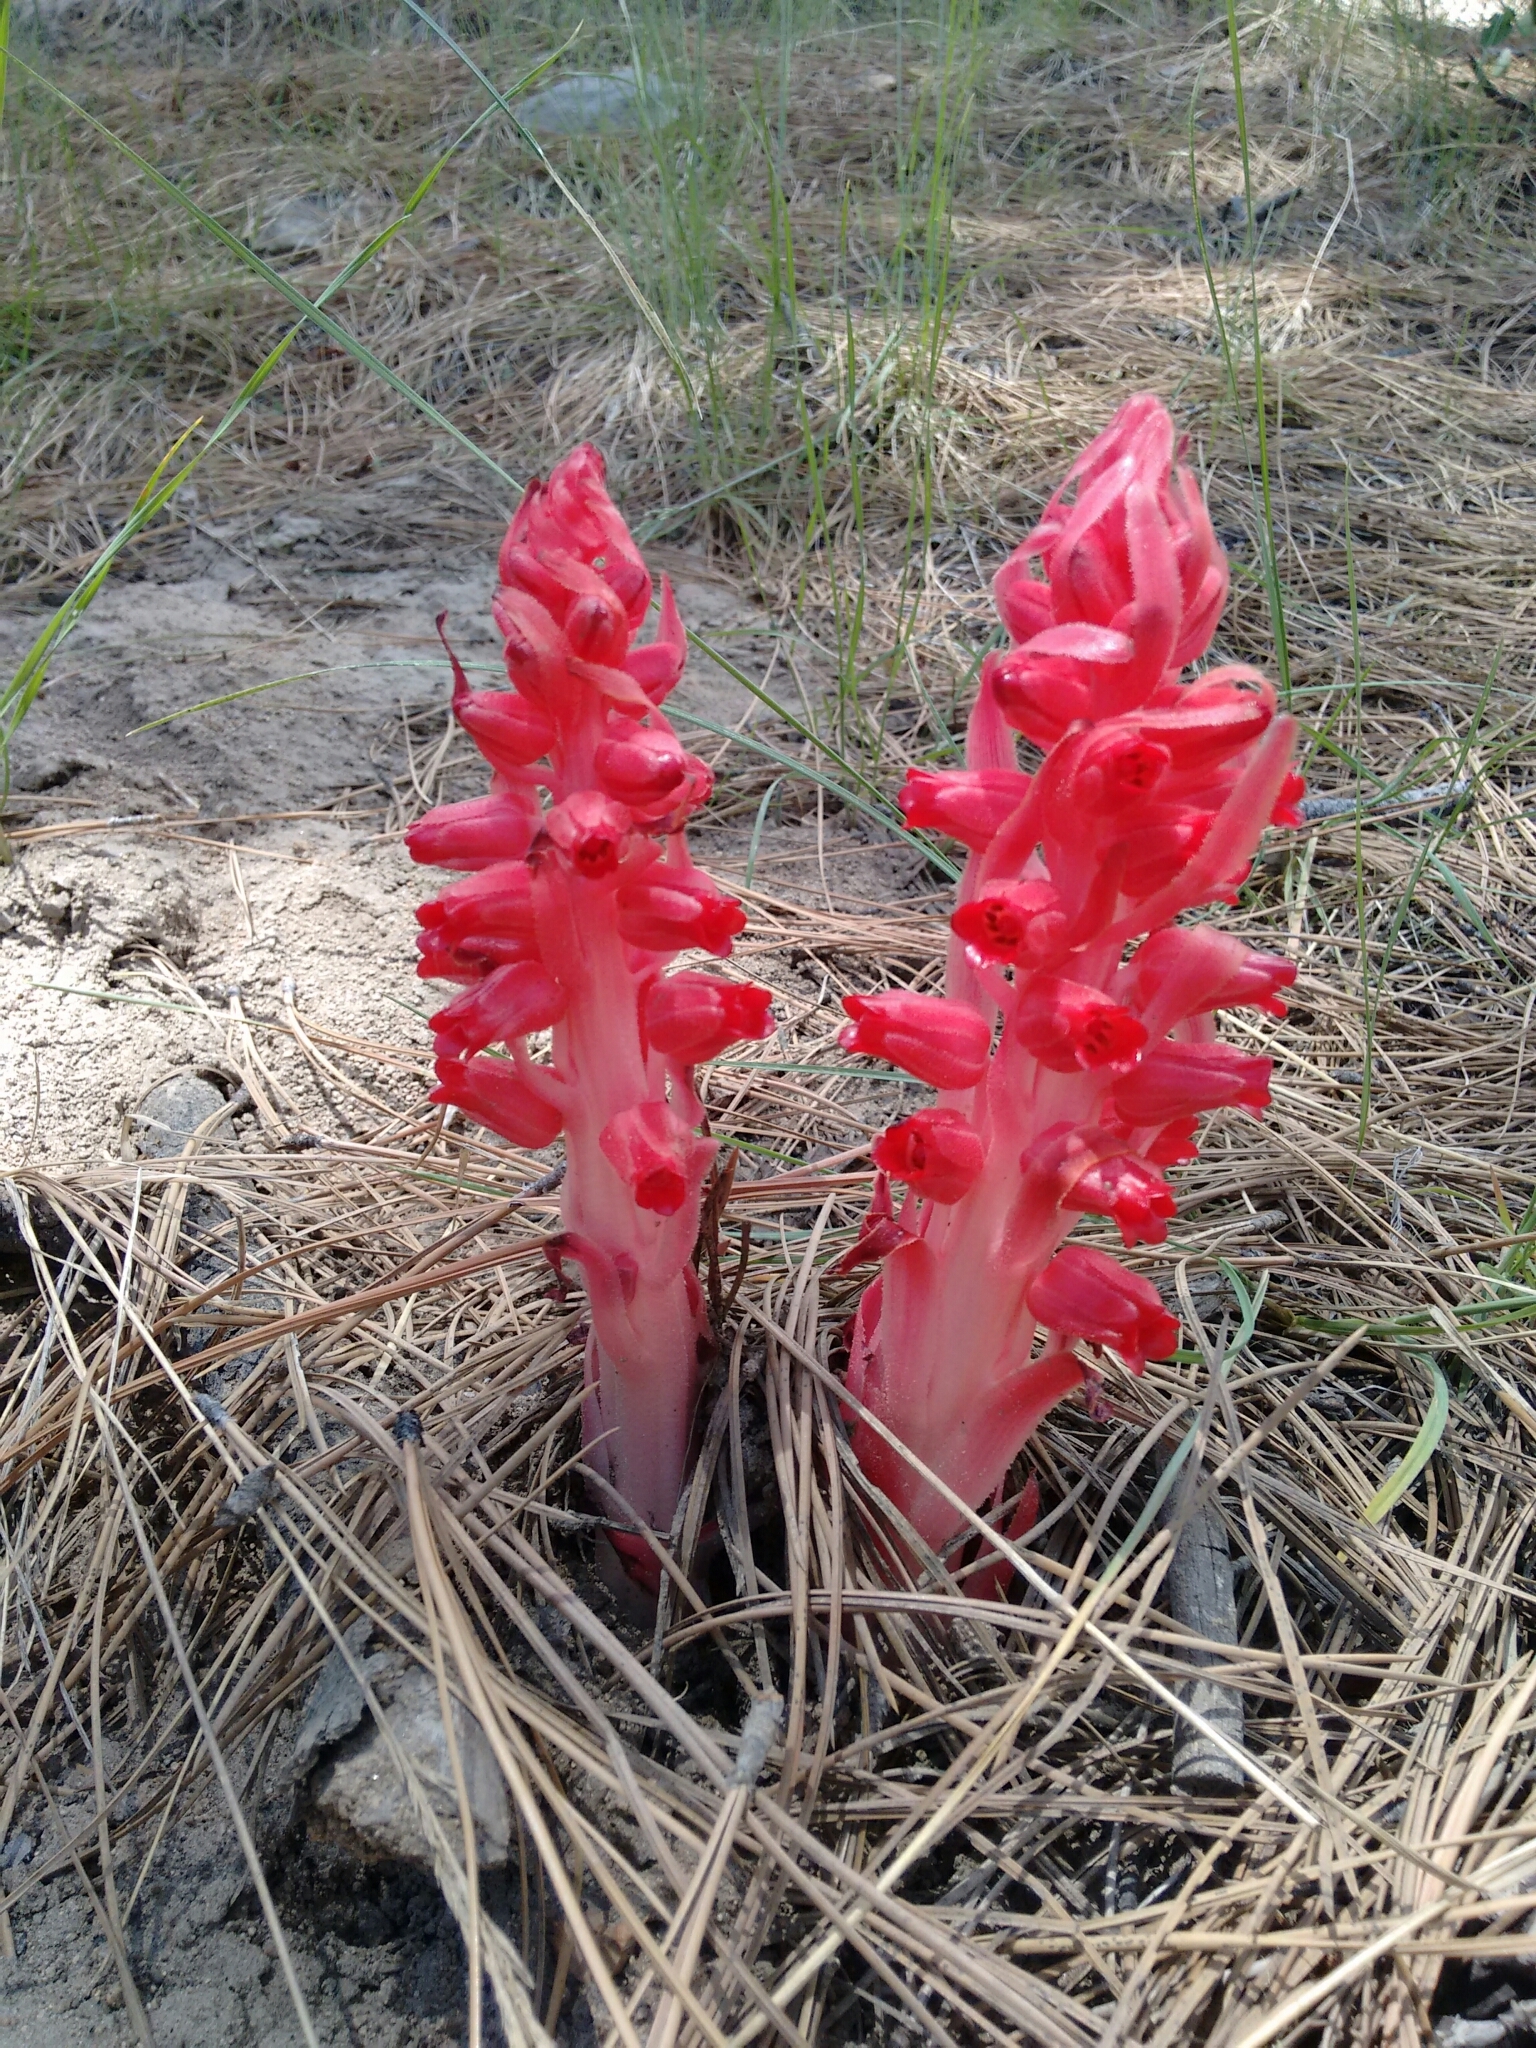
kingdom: Plantae
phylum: Tracheophyta
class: Magnoliopsida
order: Ericales
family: Ericaceae
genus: Sarcodes
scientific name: Sarcodes sanguinea
